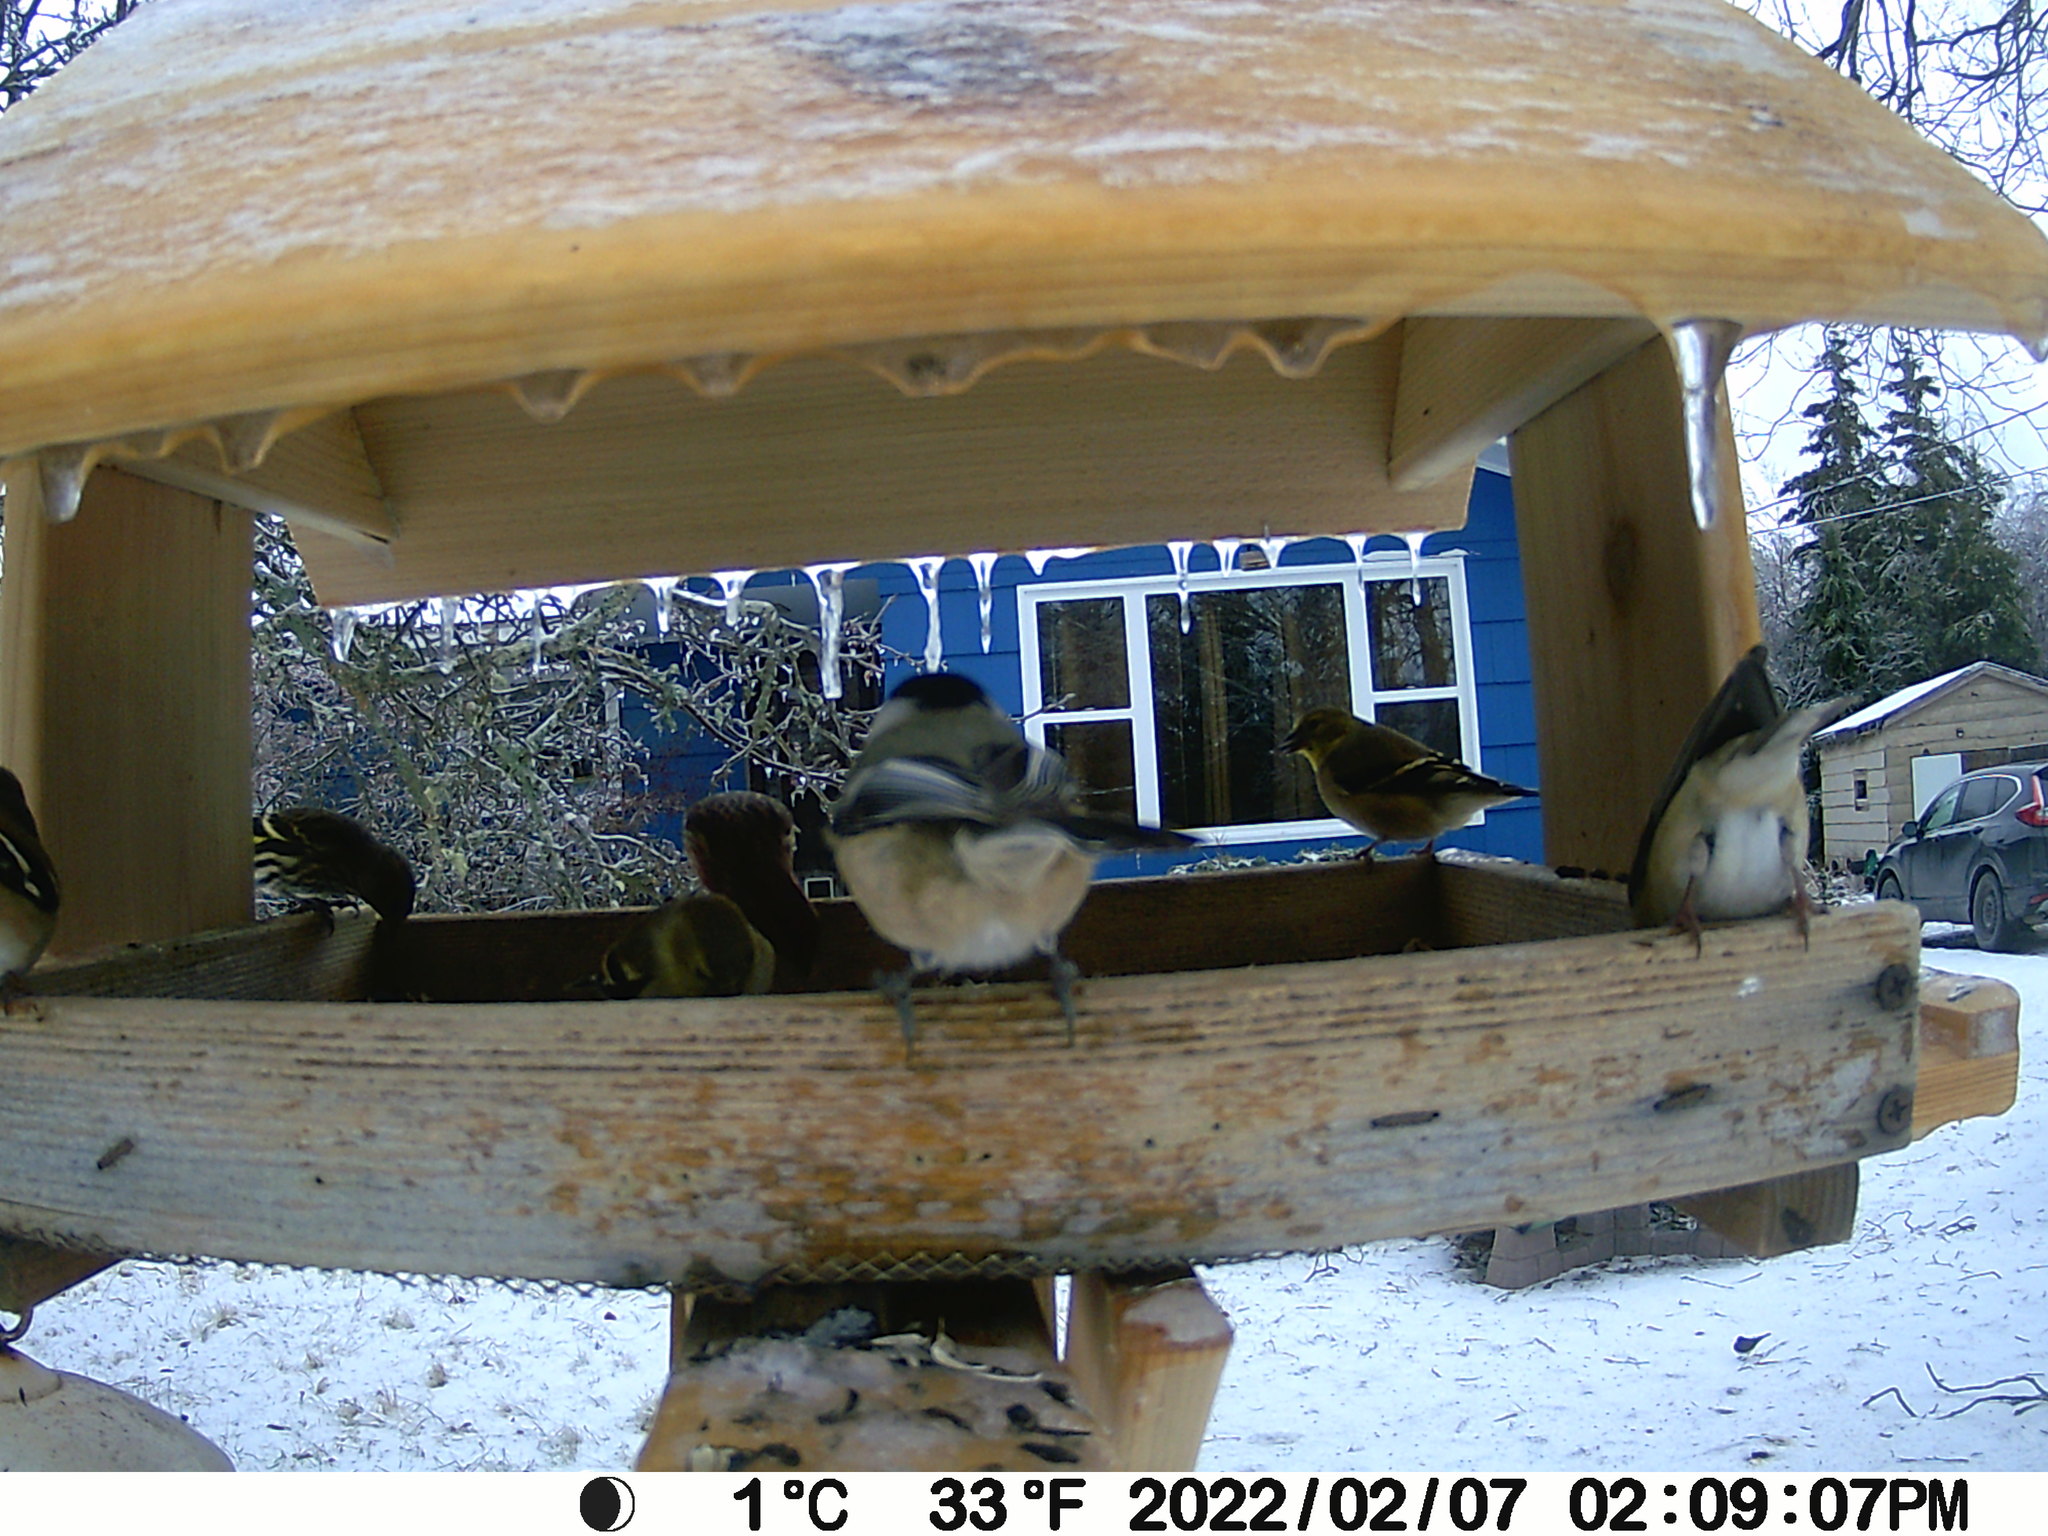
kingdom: Animalia
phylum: Chordata
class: Aves
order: Passeriformes
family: Fringillidae
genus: Spinus
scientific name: Spinus pinus
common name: Pine siskin
